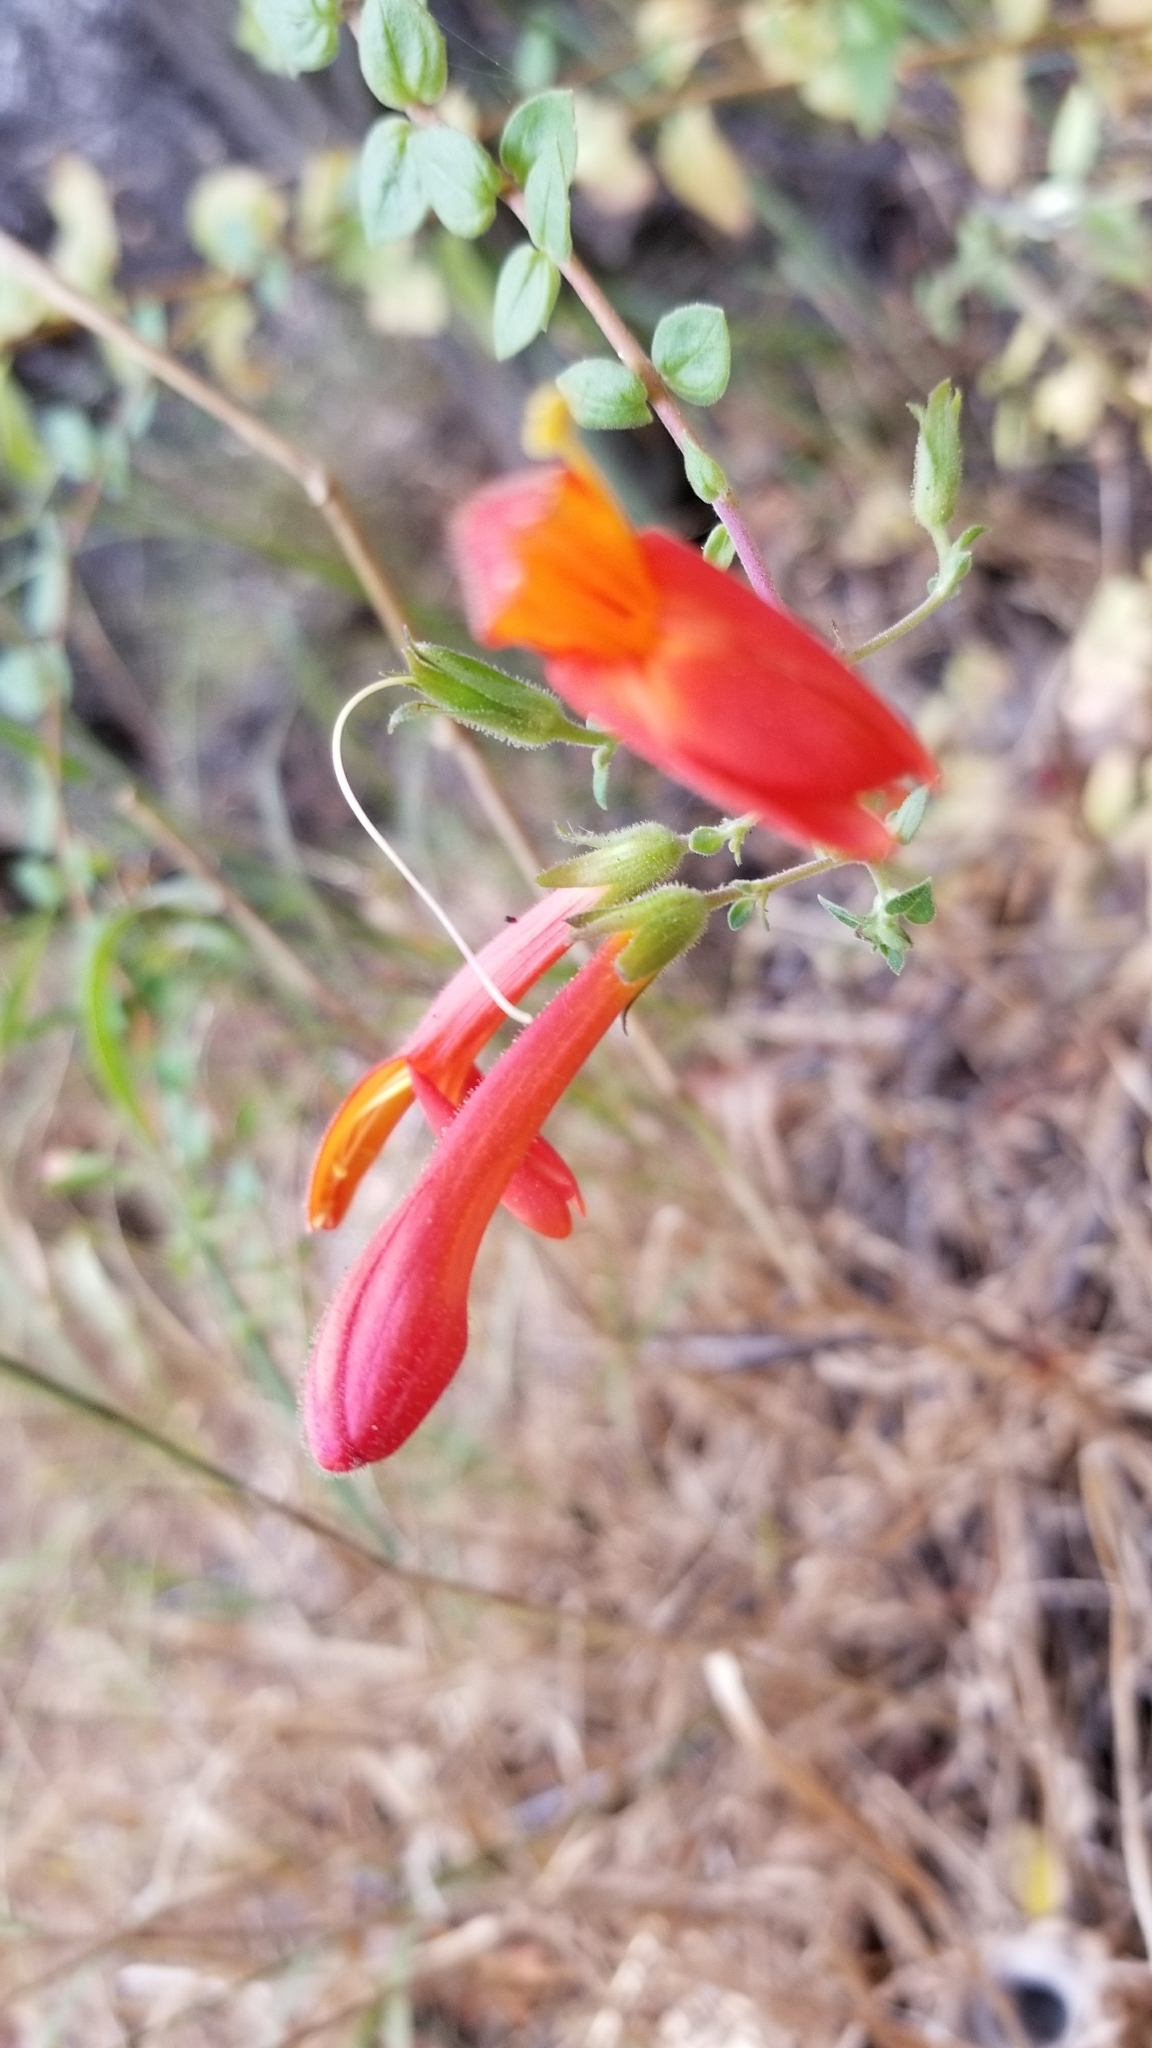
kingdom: Plantae
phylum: Tracheophyta
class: Magnoliopsida
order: Lamiales
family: Plantaginaceae
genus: Keckiella
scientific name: Keckiella cordifolia
